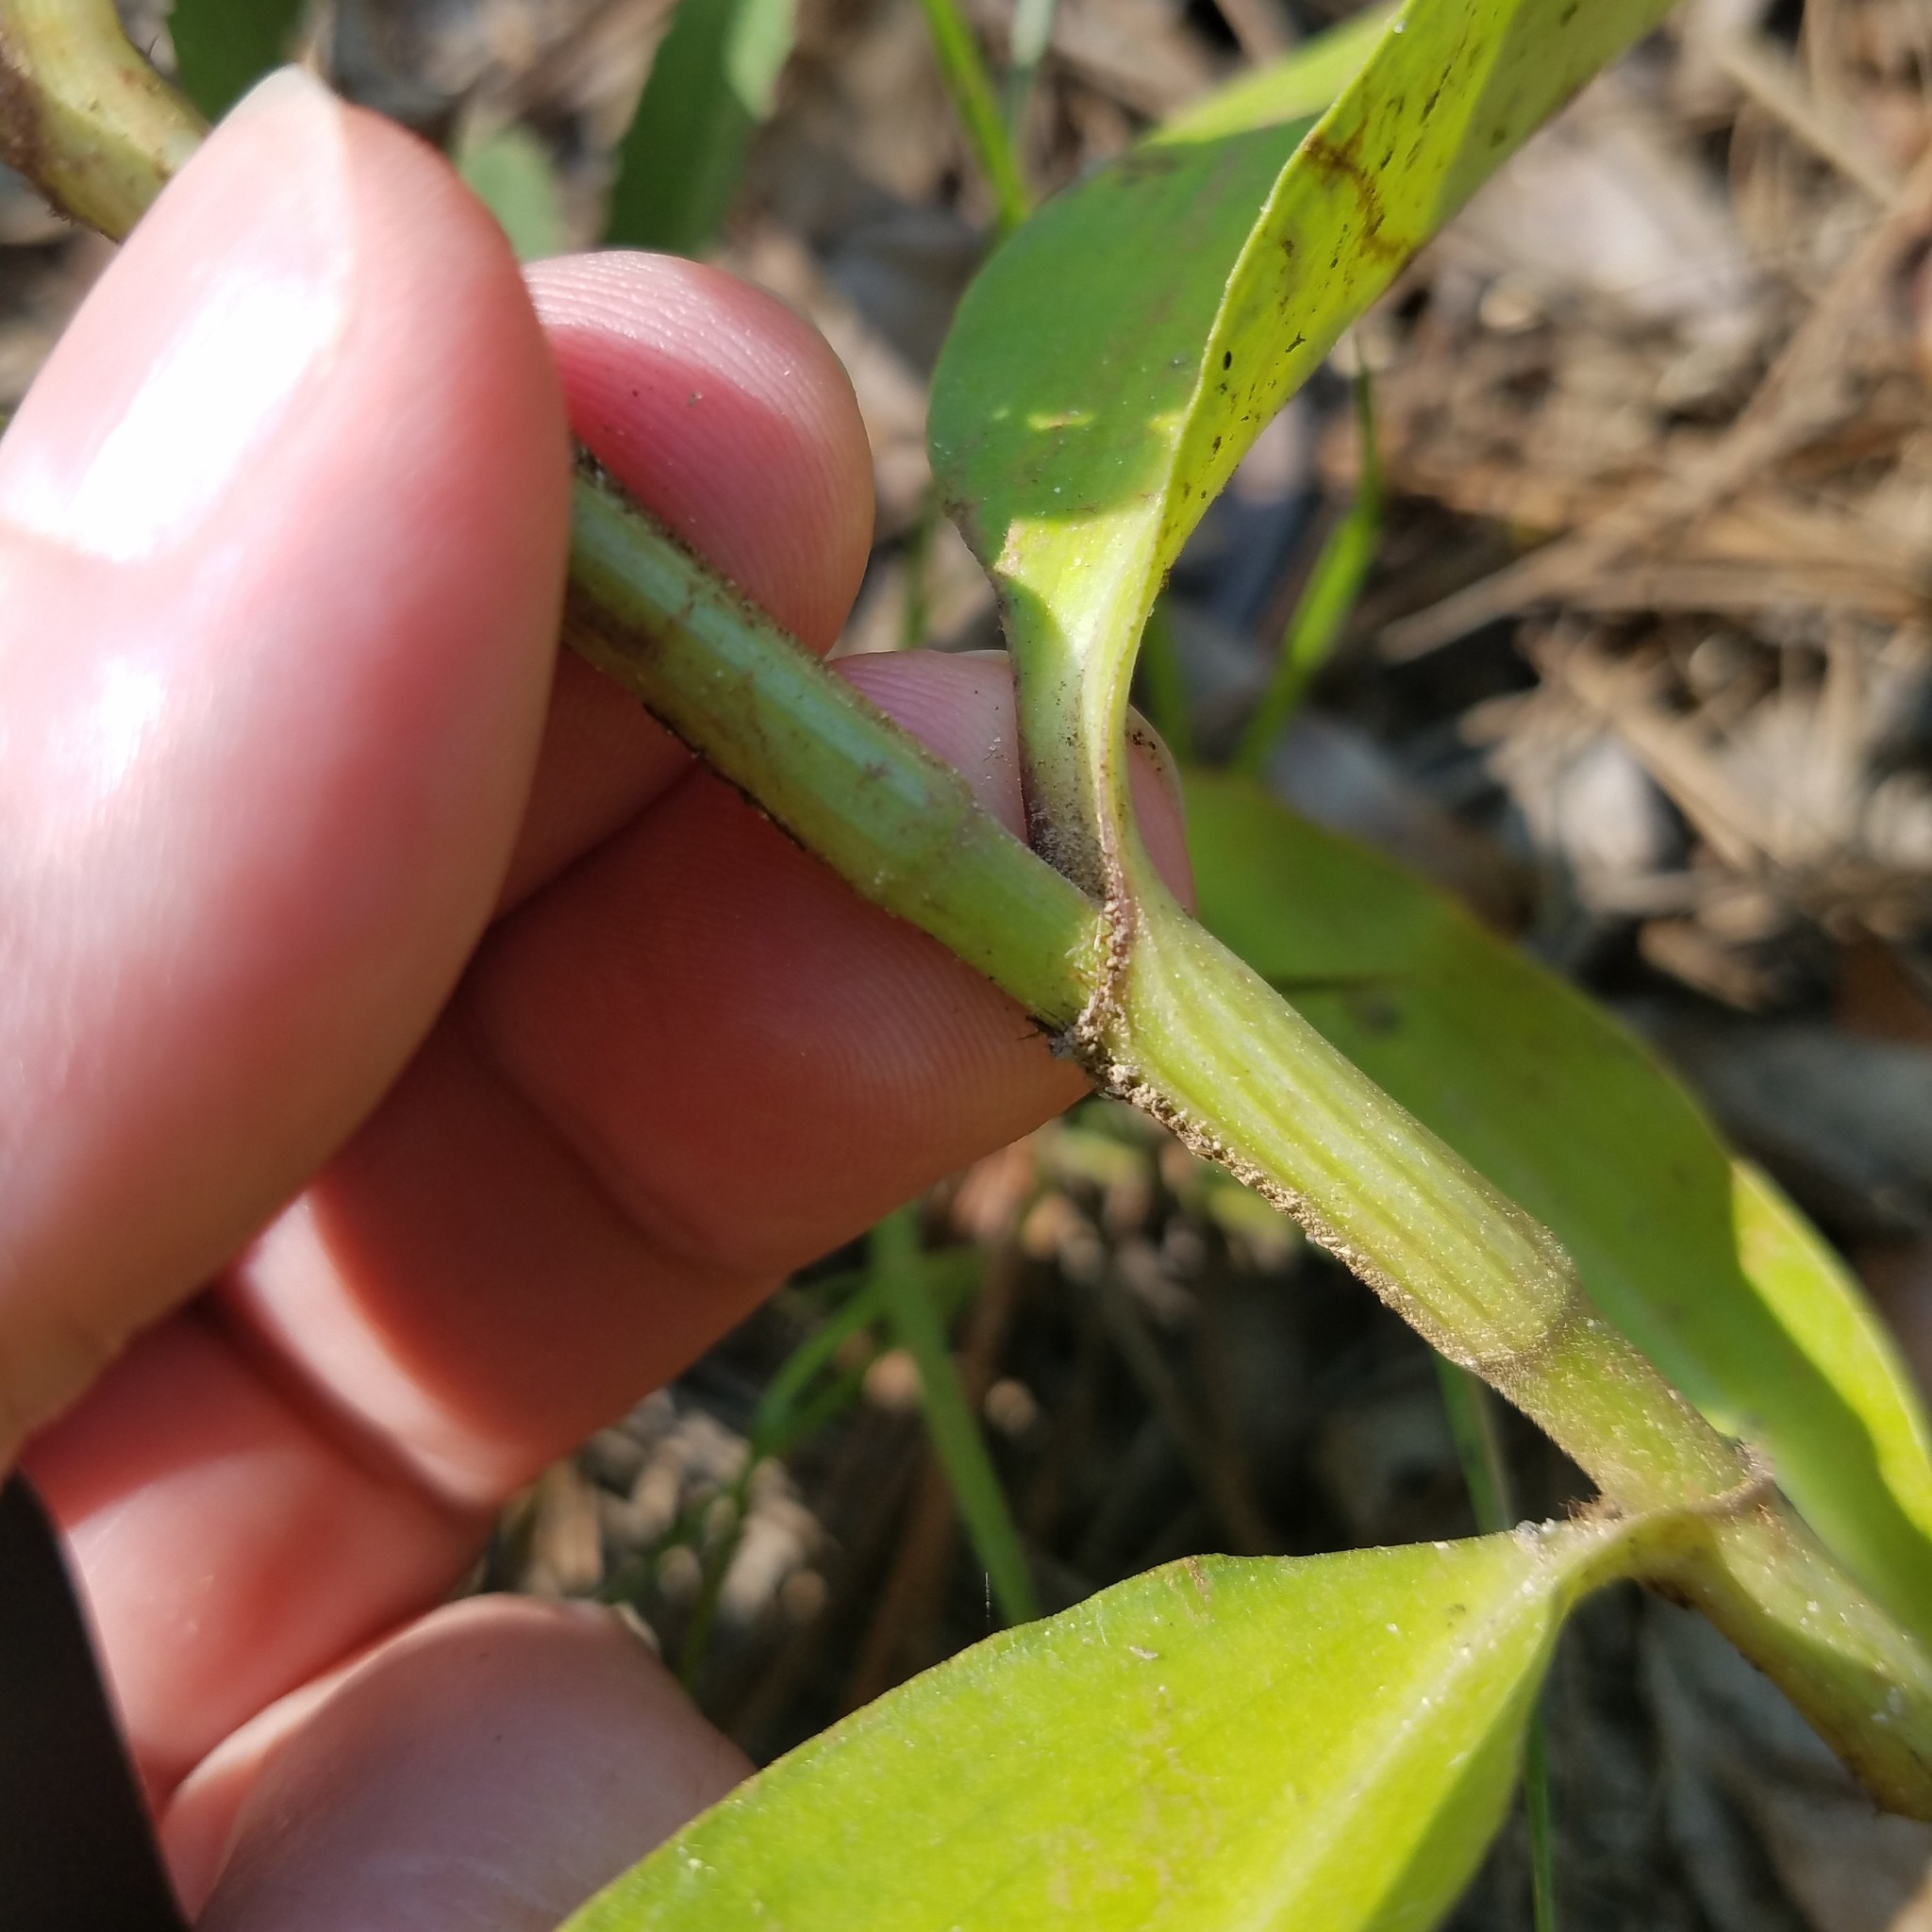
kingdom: Plantae
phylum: Tracheophyta
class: Liliopsida
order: Commelinales
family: Commelinaceae
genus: Commelina
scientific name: Commelina virginica
